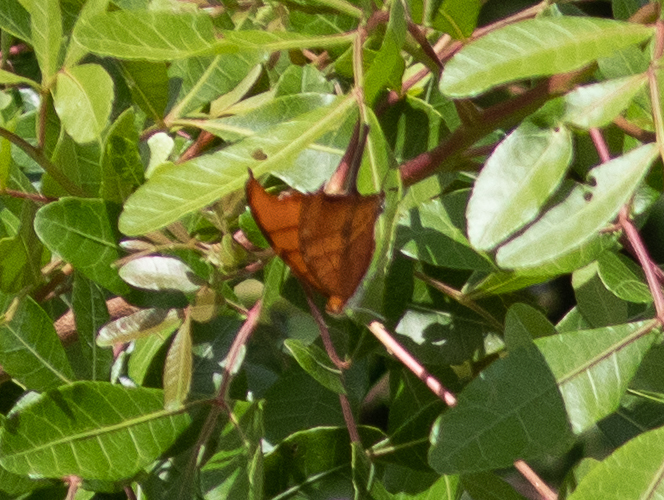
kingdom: Animalia
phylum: Arthropoda
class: Insecta
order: Lepidoptera
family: Nymphalidae
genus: Marpesia
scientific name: Marpesia petreus
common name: Red dagger wing
